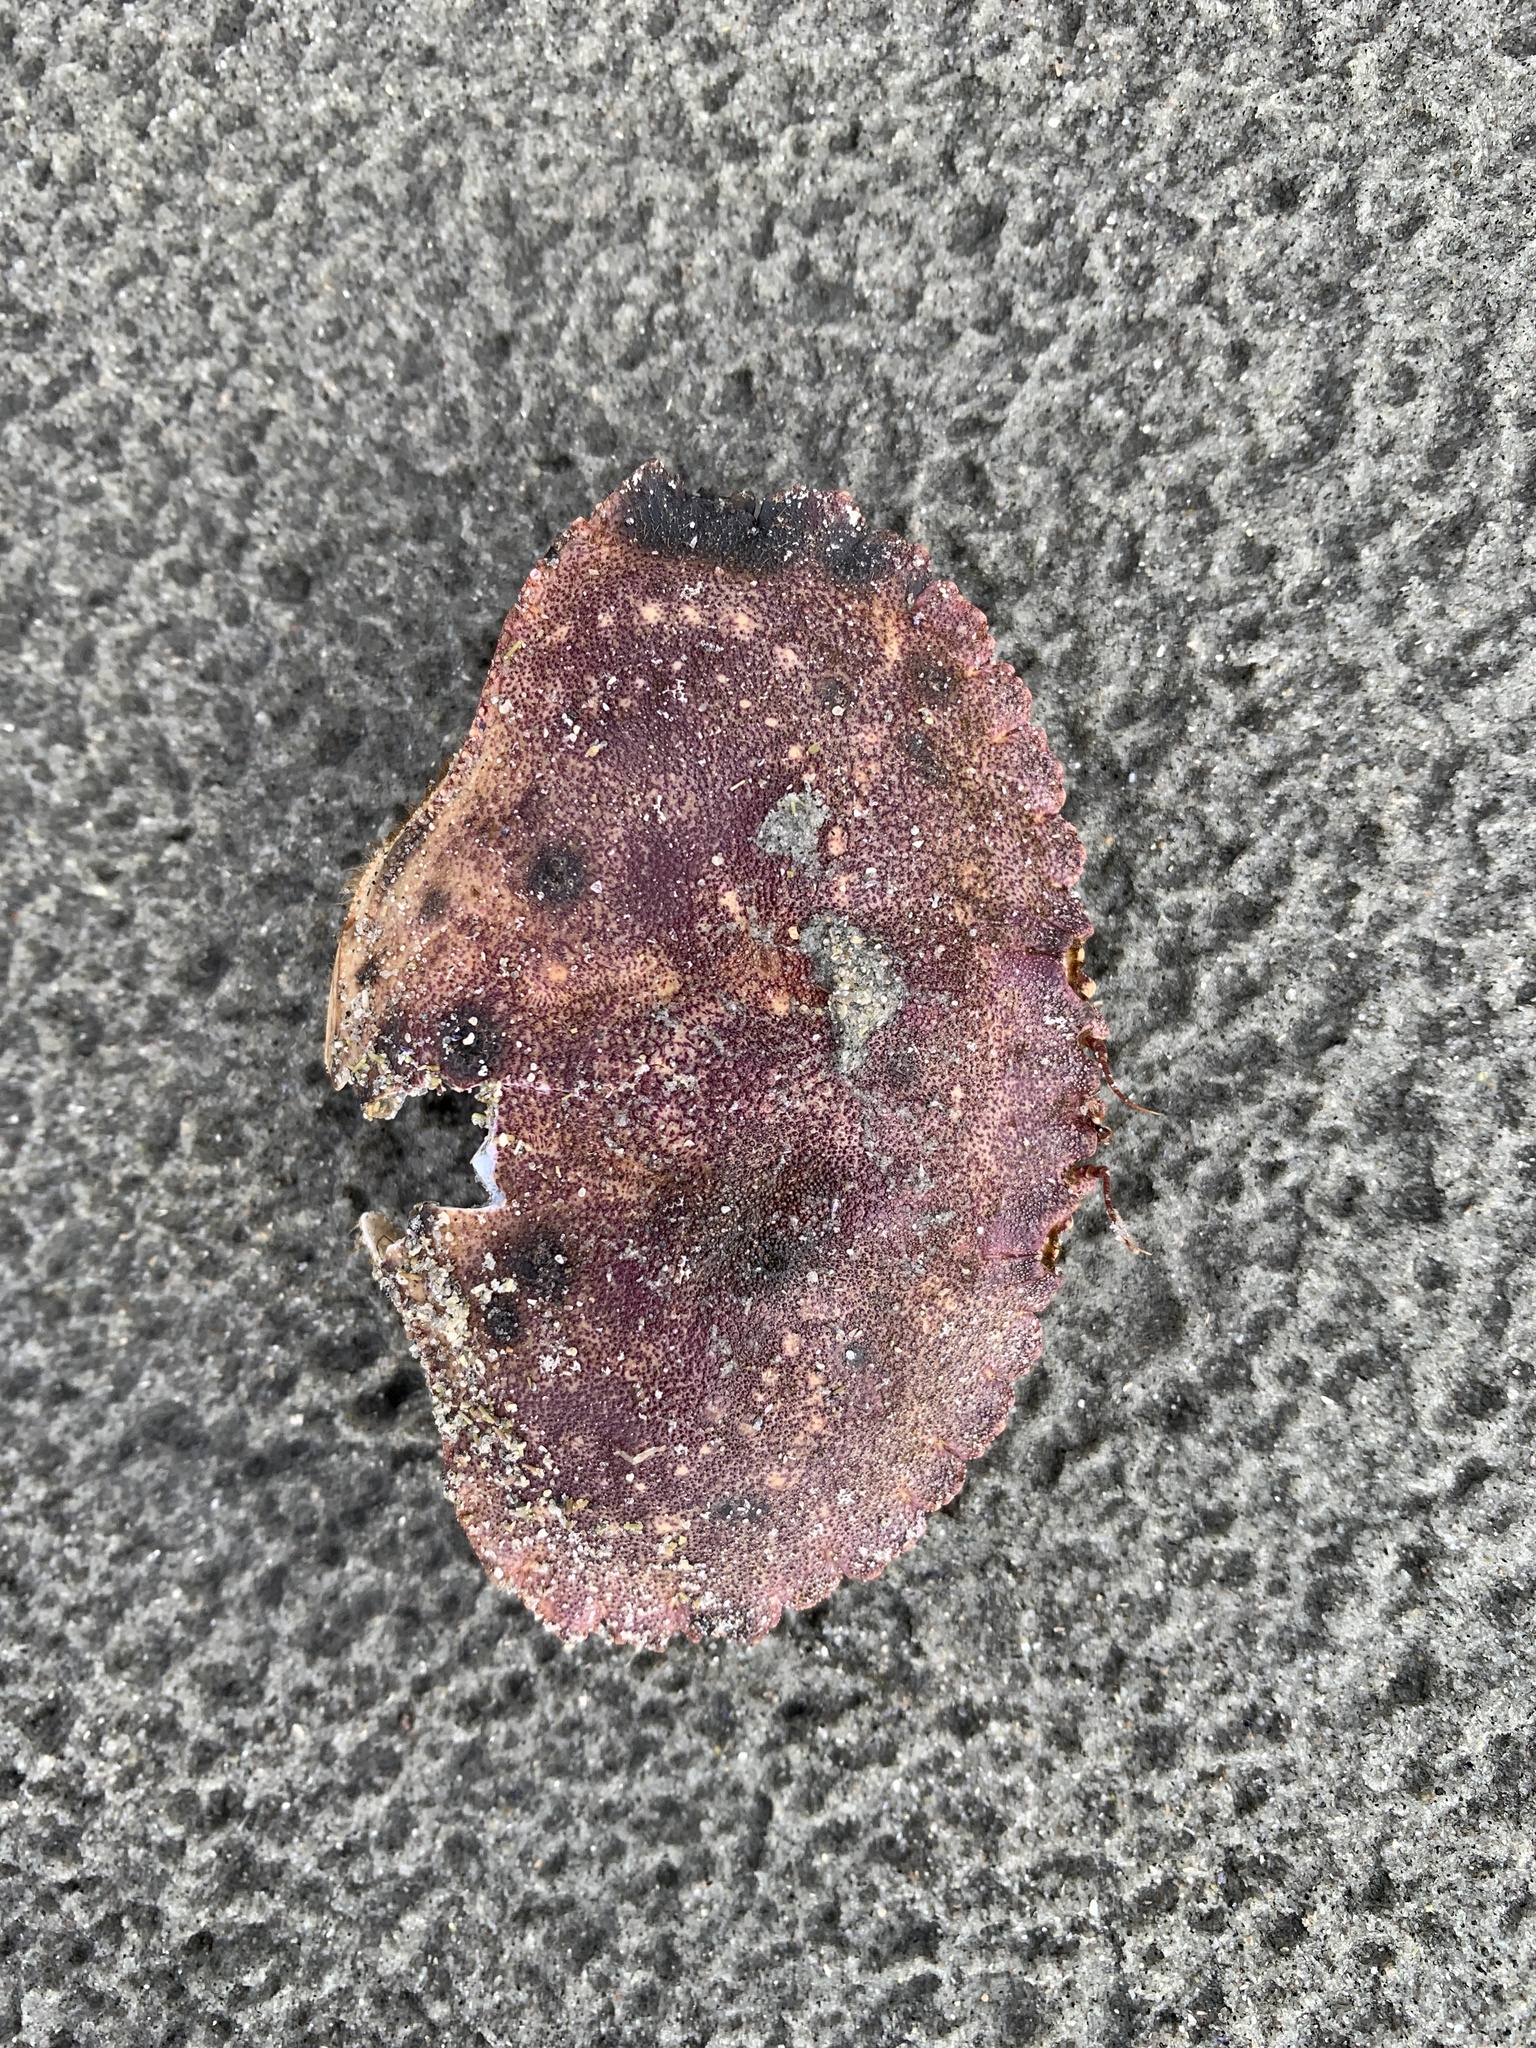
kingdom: Animalia
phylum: Arthropoda
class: Malacostraca
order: Decapoda
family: Cancridae
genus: Cancer
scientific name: Cancer borealis
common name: Jonah crab
